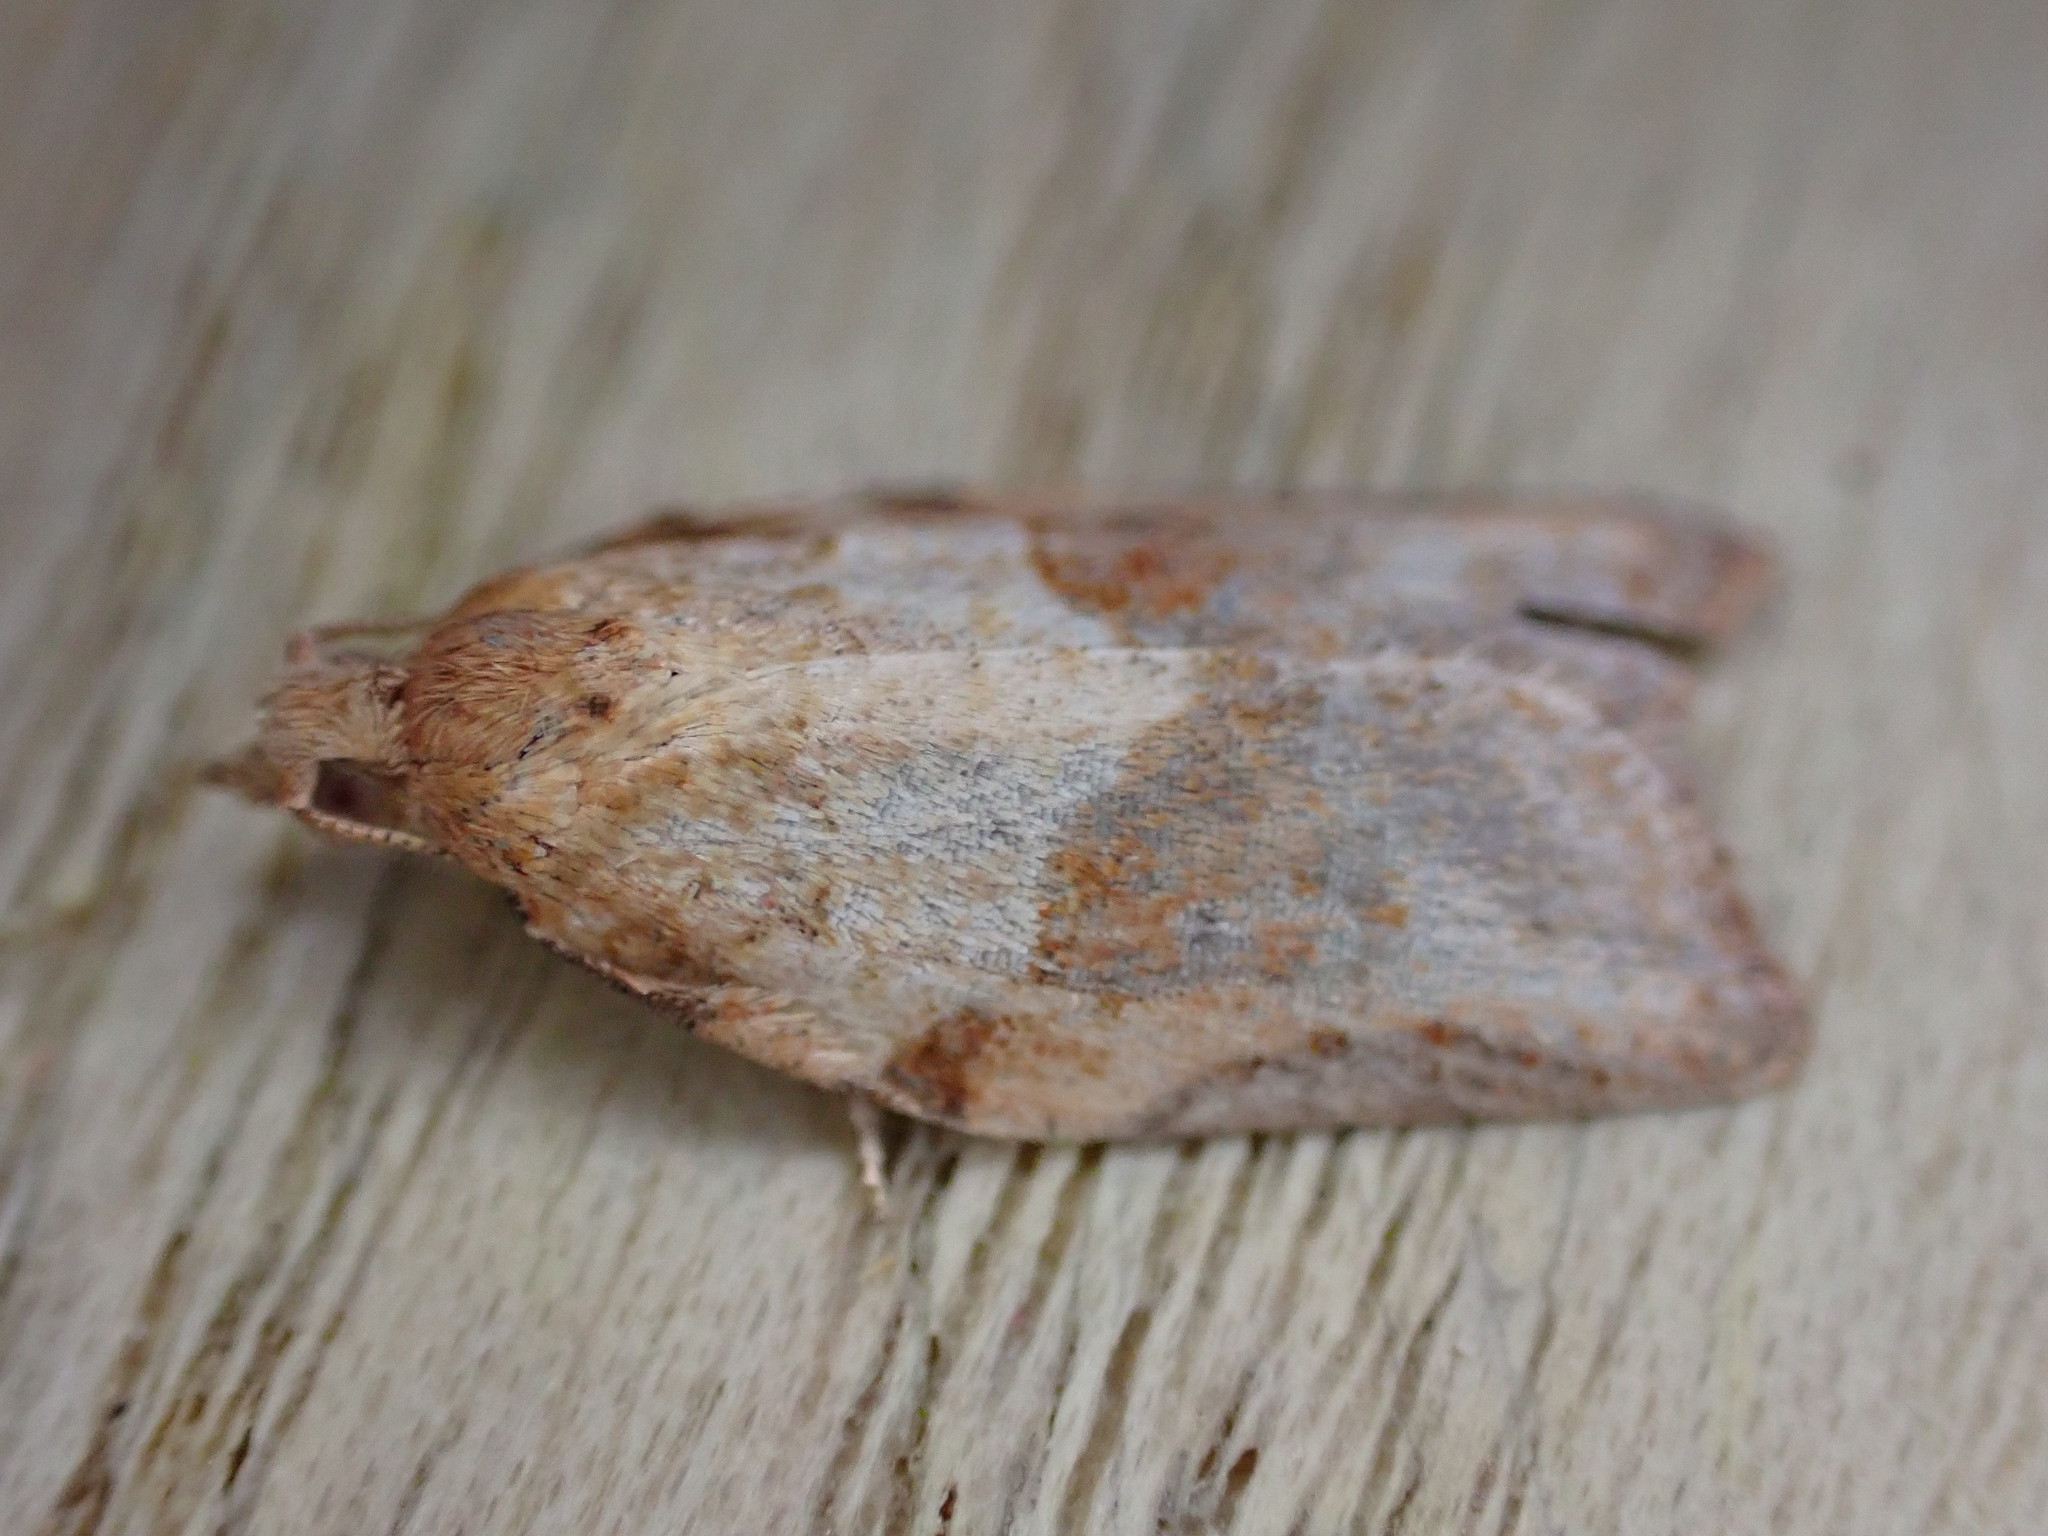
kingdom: Animalia
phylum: Arthropoda
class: Insecta
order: Lepidoptera
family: Tortricidae
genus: Epiphyas
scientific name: Epiphyas postvittana
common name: Light brown apple moth
